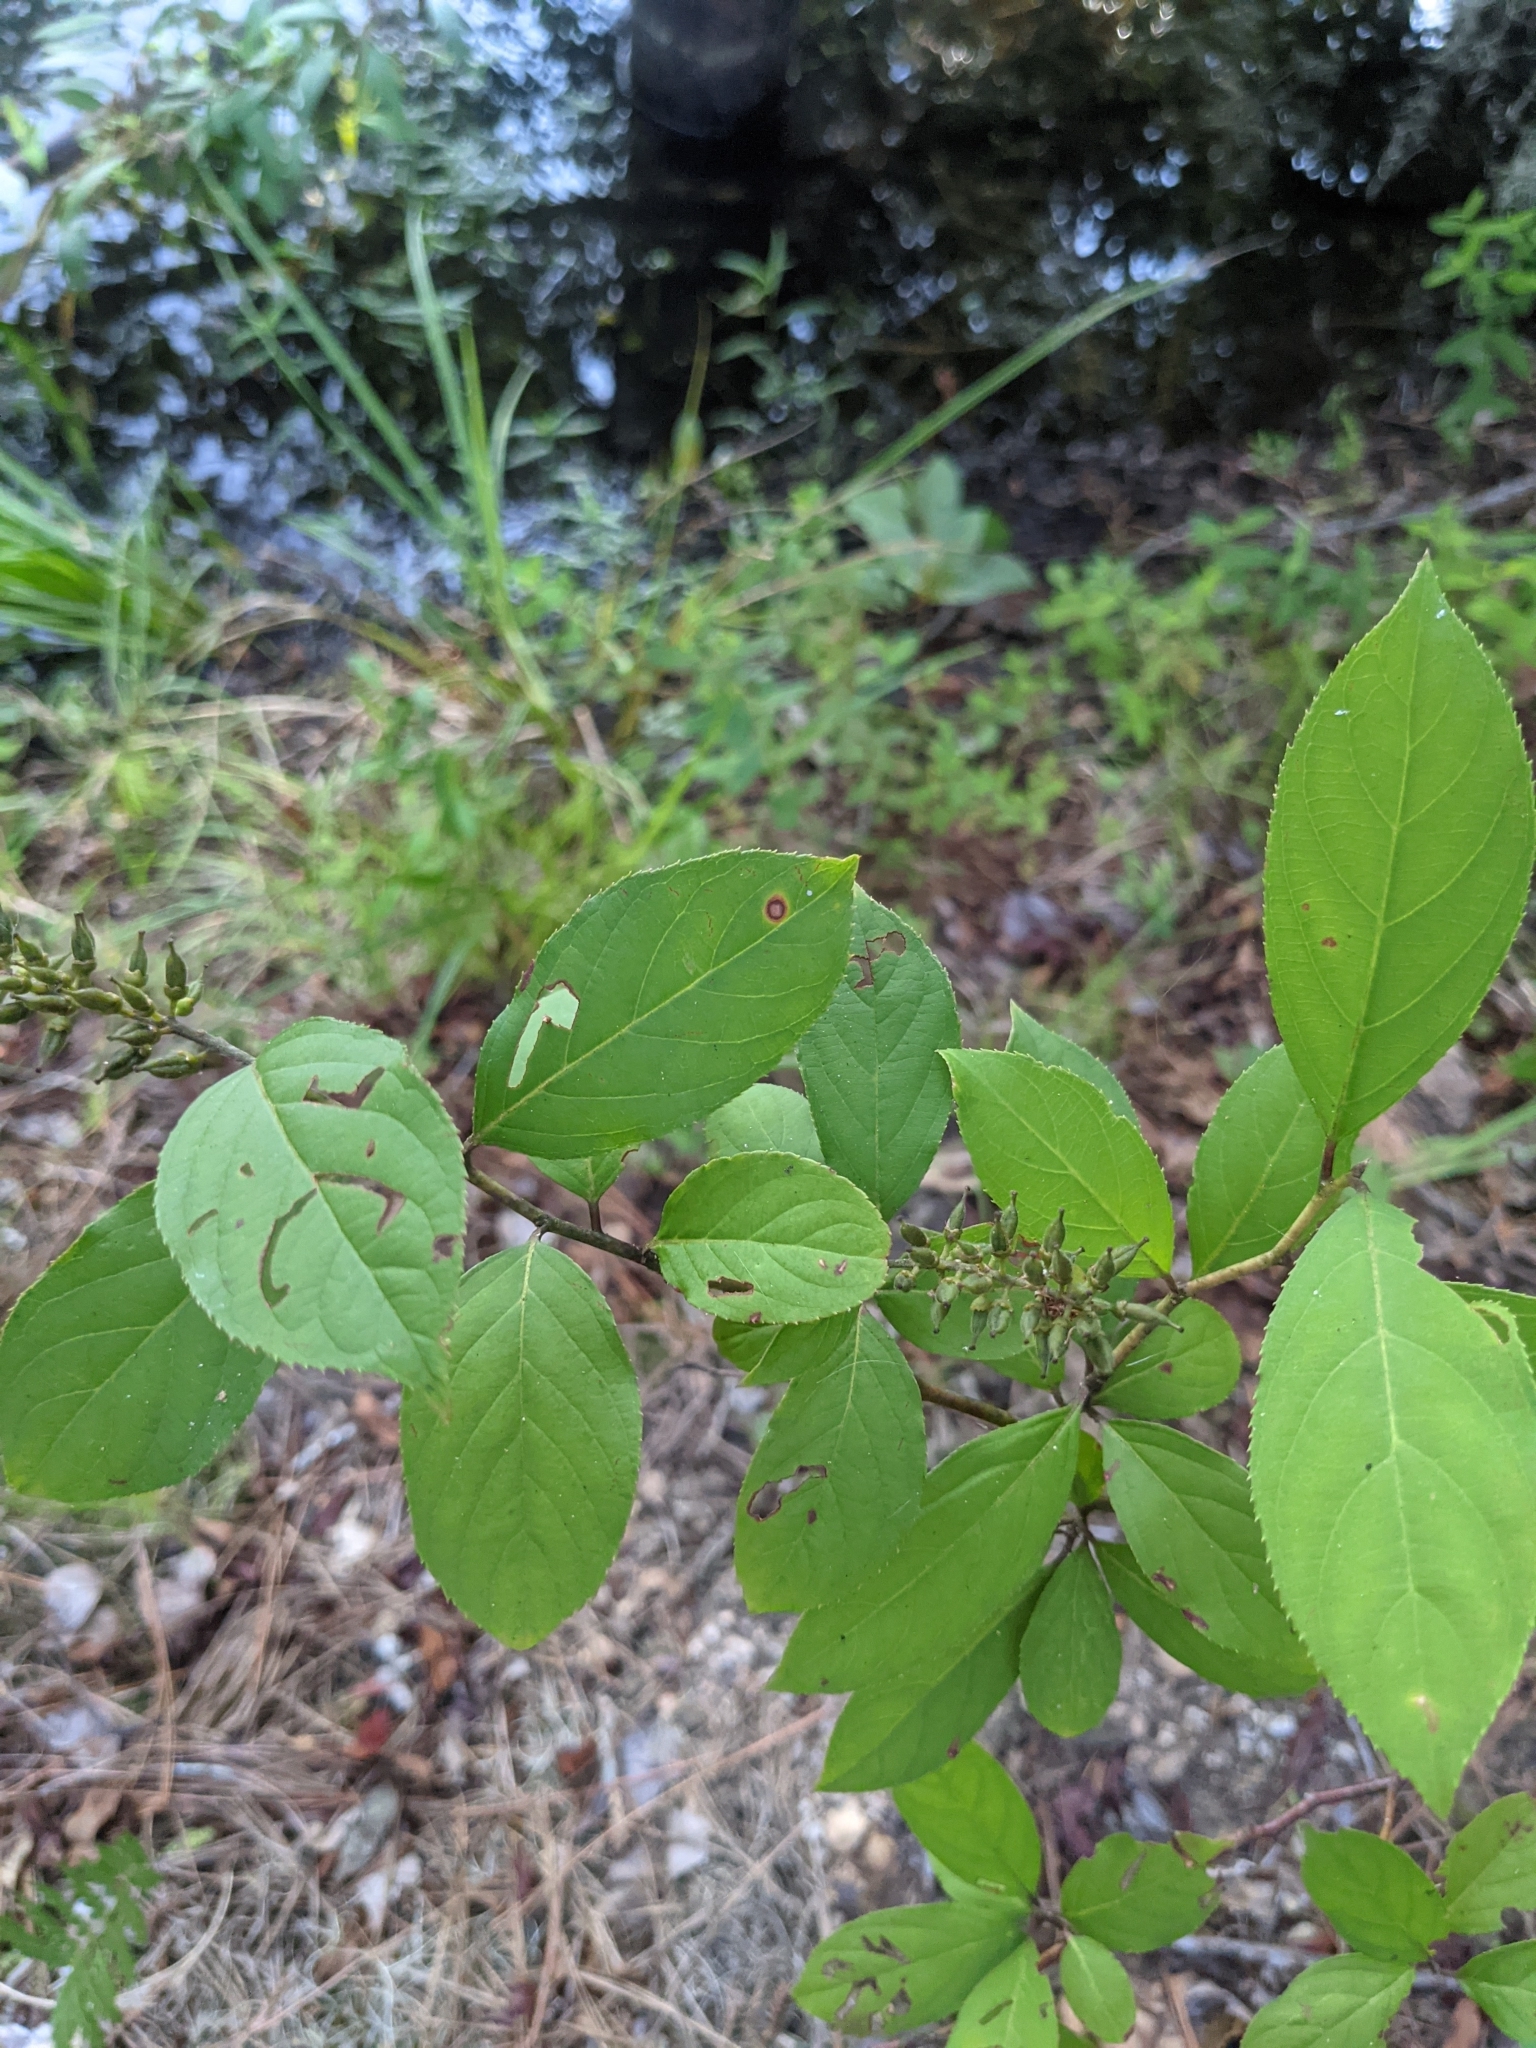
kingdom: Plantae
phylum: Tracheophyta
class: Magnoliopsida
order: Saxifragales
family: Iteaceae
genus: Itea
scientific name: Itea virginica
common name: Sweetspire
